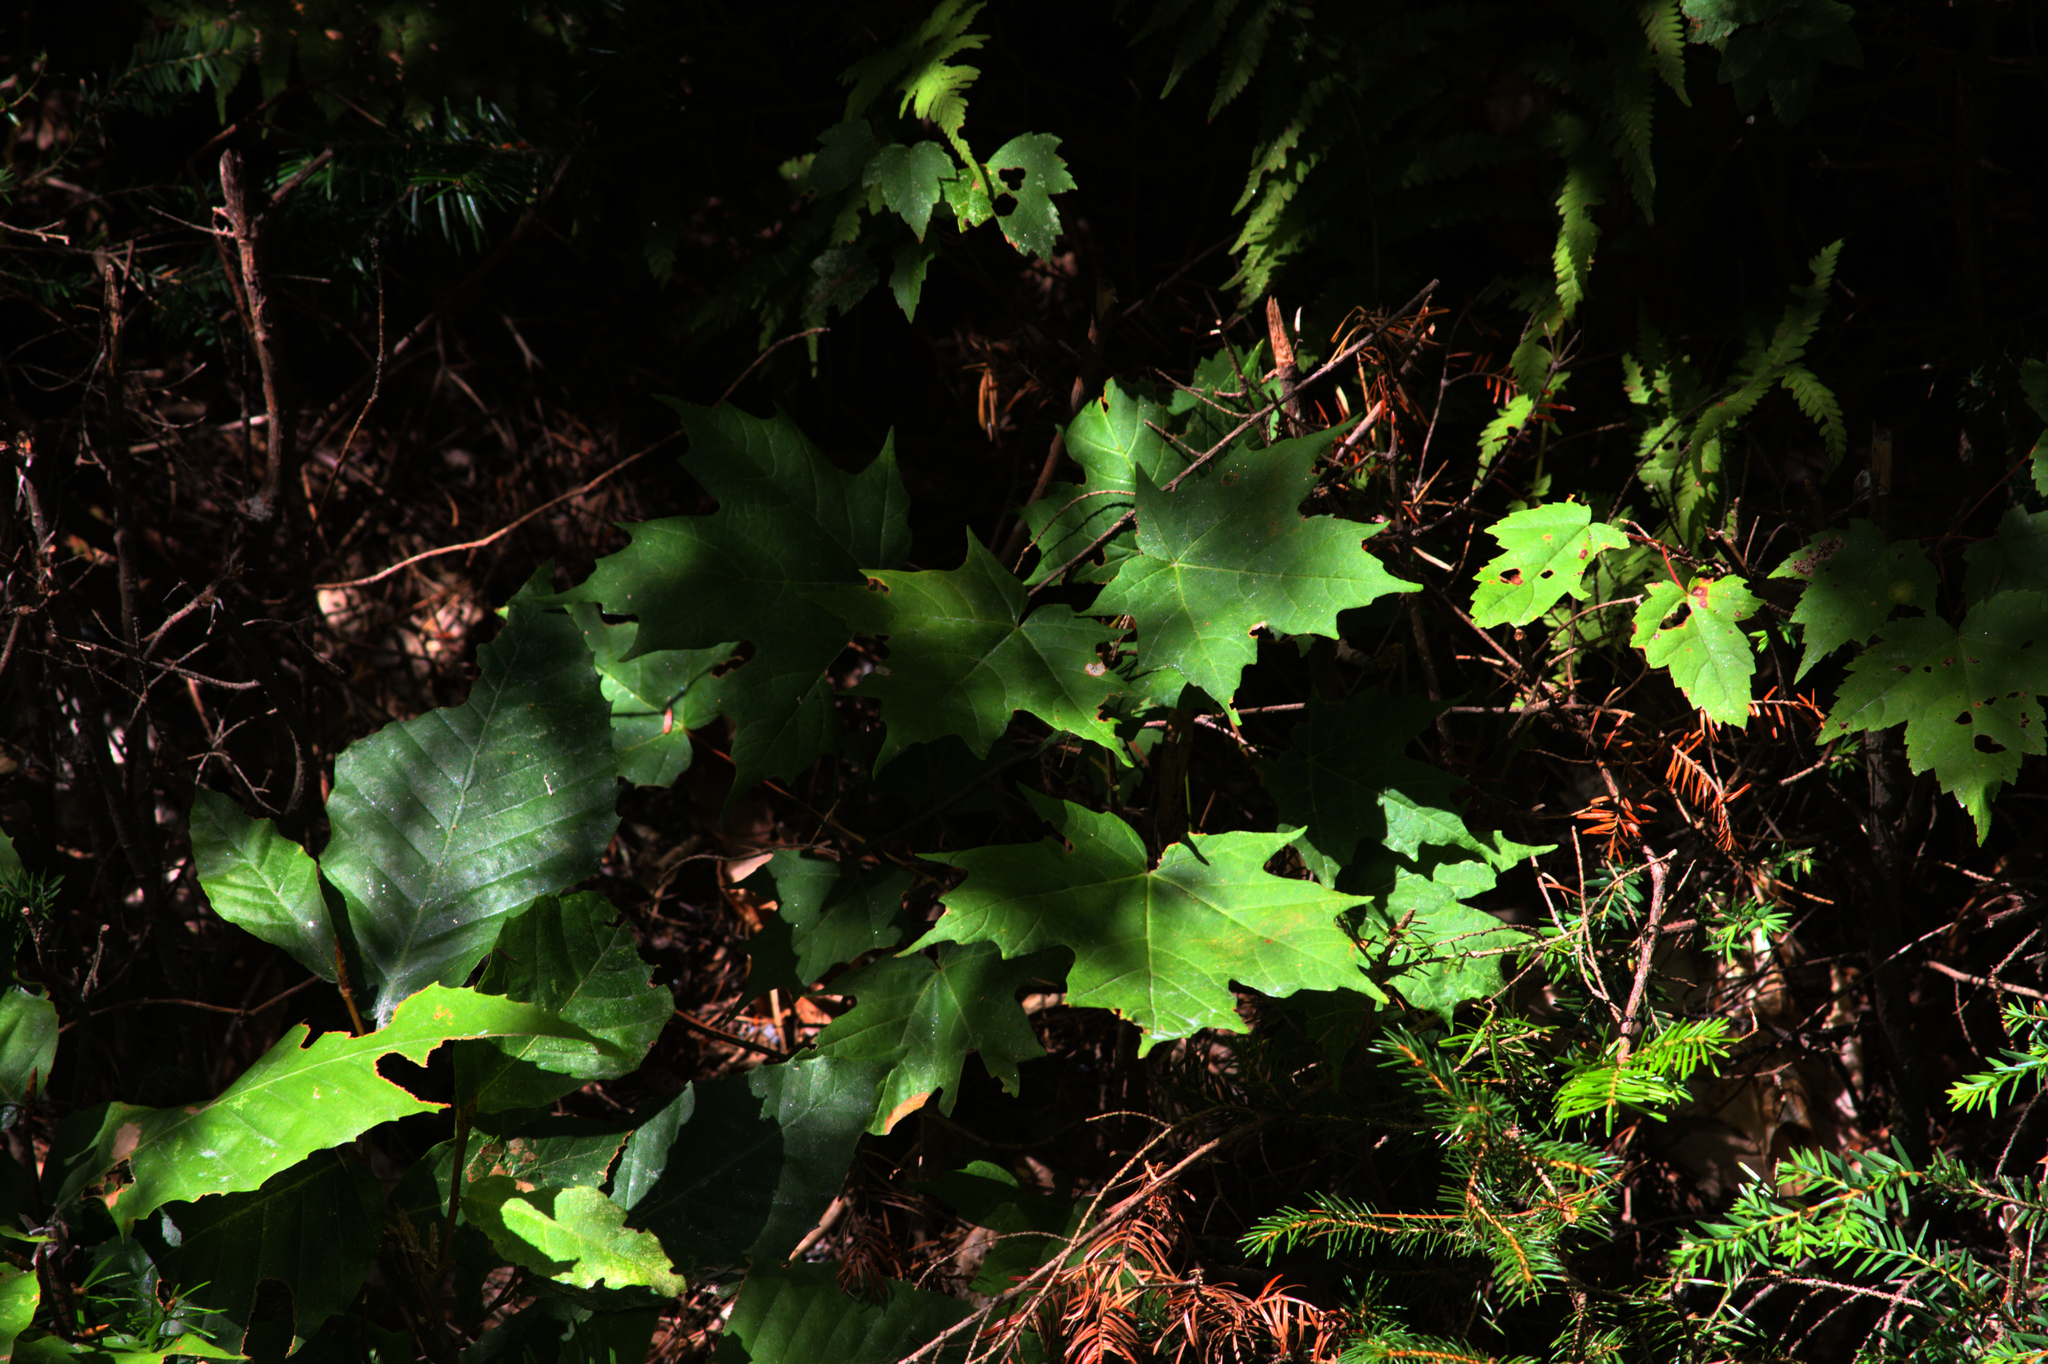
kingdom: Plantae
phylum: Tracheophyta
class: Magnoliopsida
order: Fagales
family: Fagaceae
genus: Fagus
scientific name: Fagus grandifolia
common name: American beech
